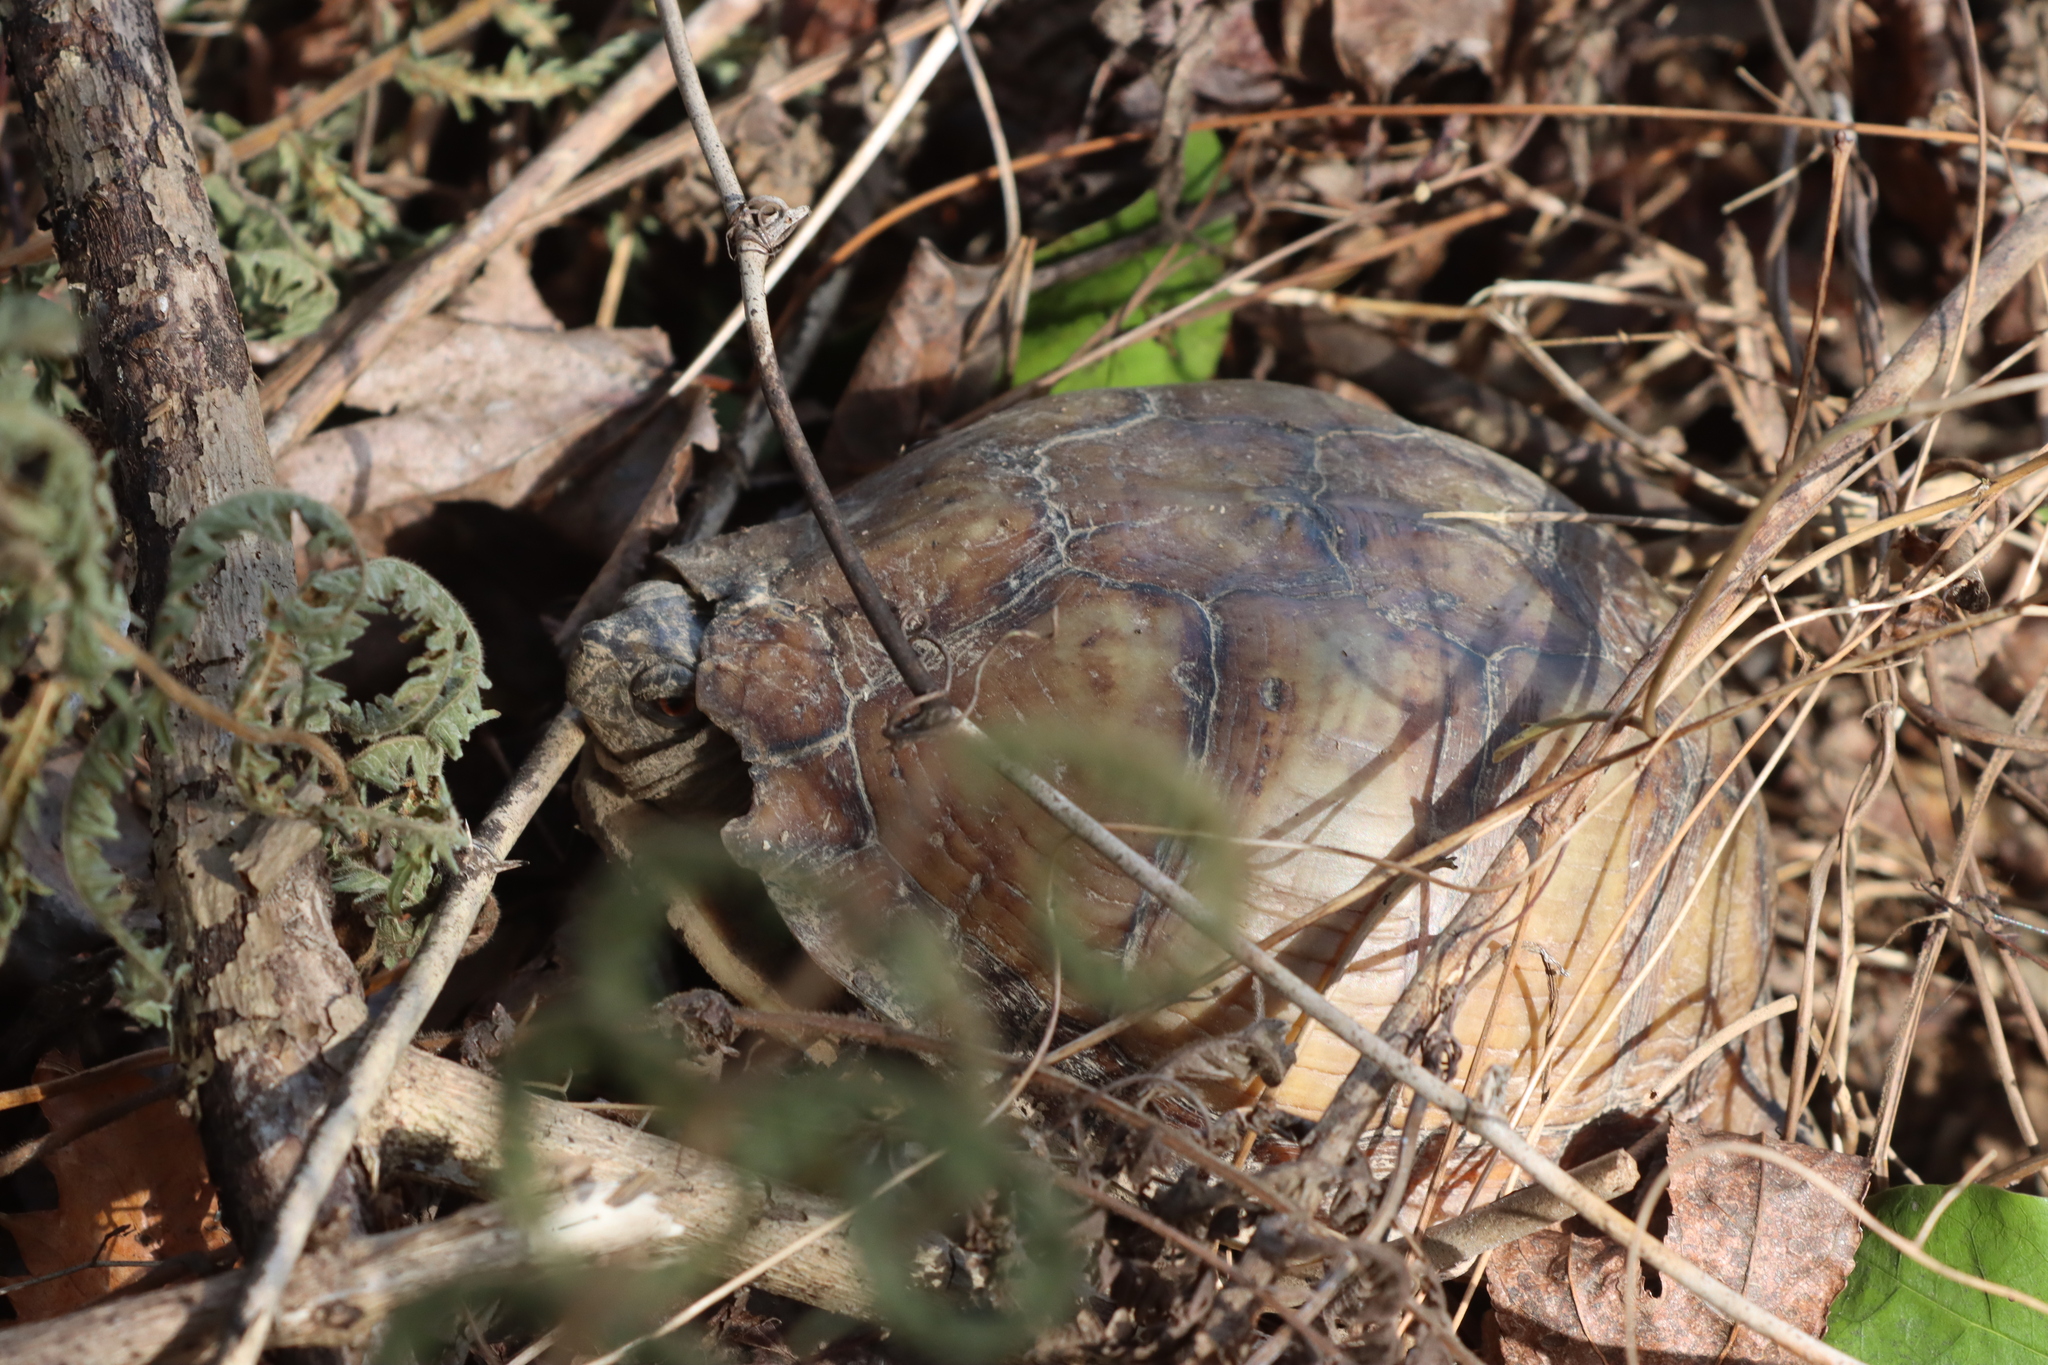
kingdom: Animalia
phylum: Chordata
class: Testudines
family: Emydidae
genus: Terrapene
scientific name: Terrapene carolina
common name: Common box turtle
